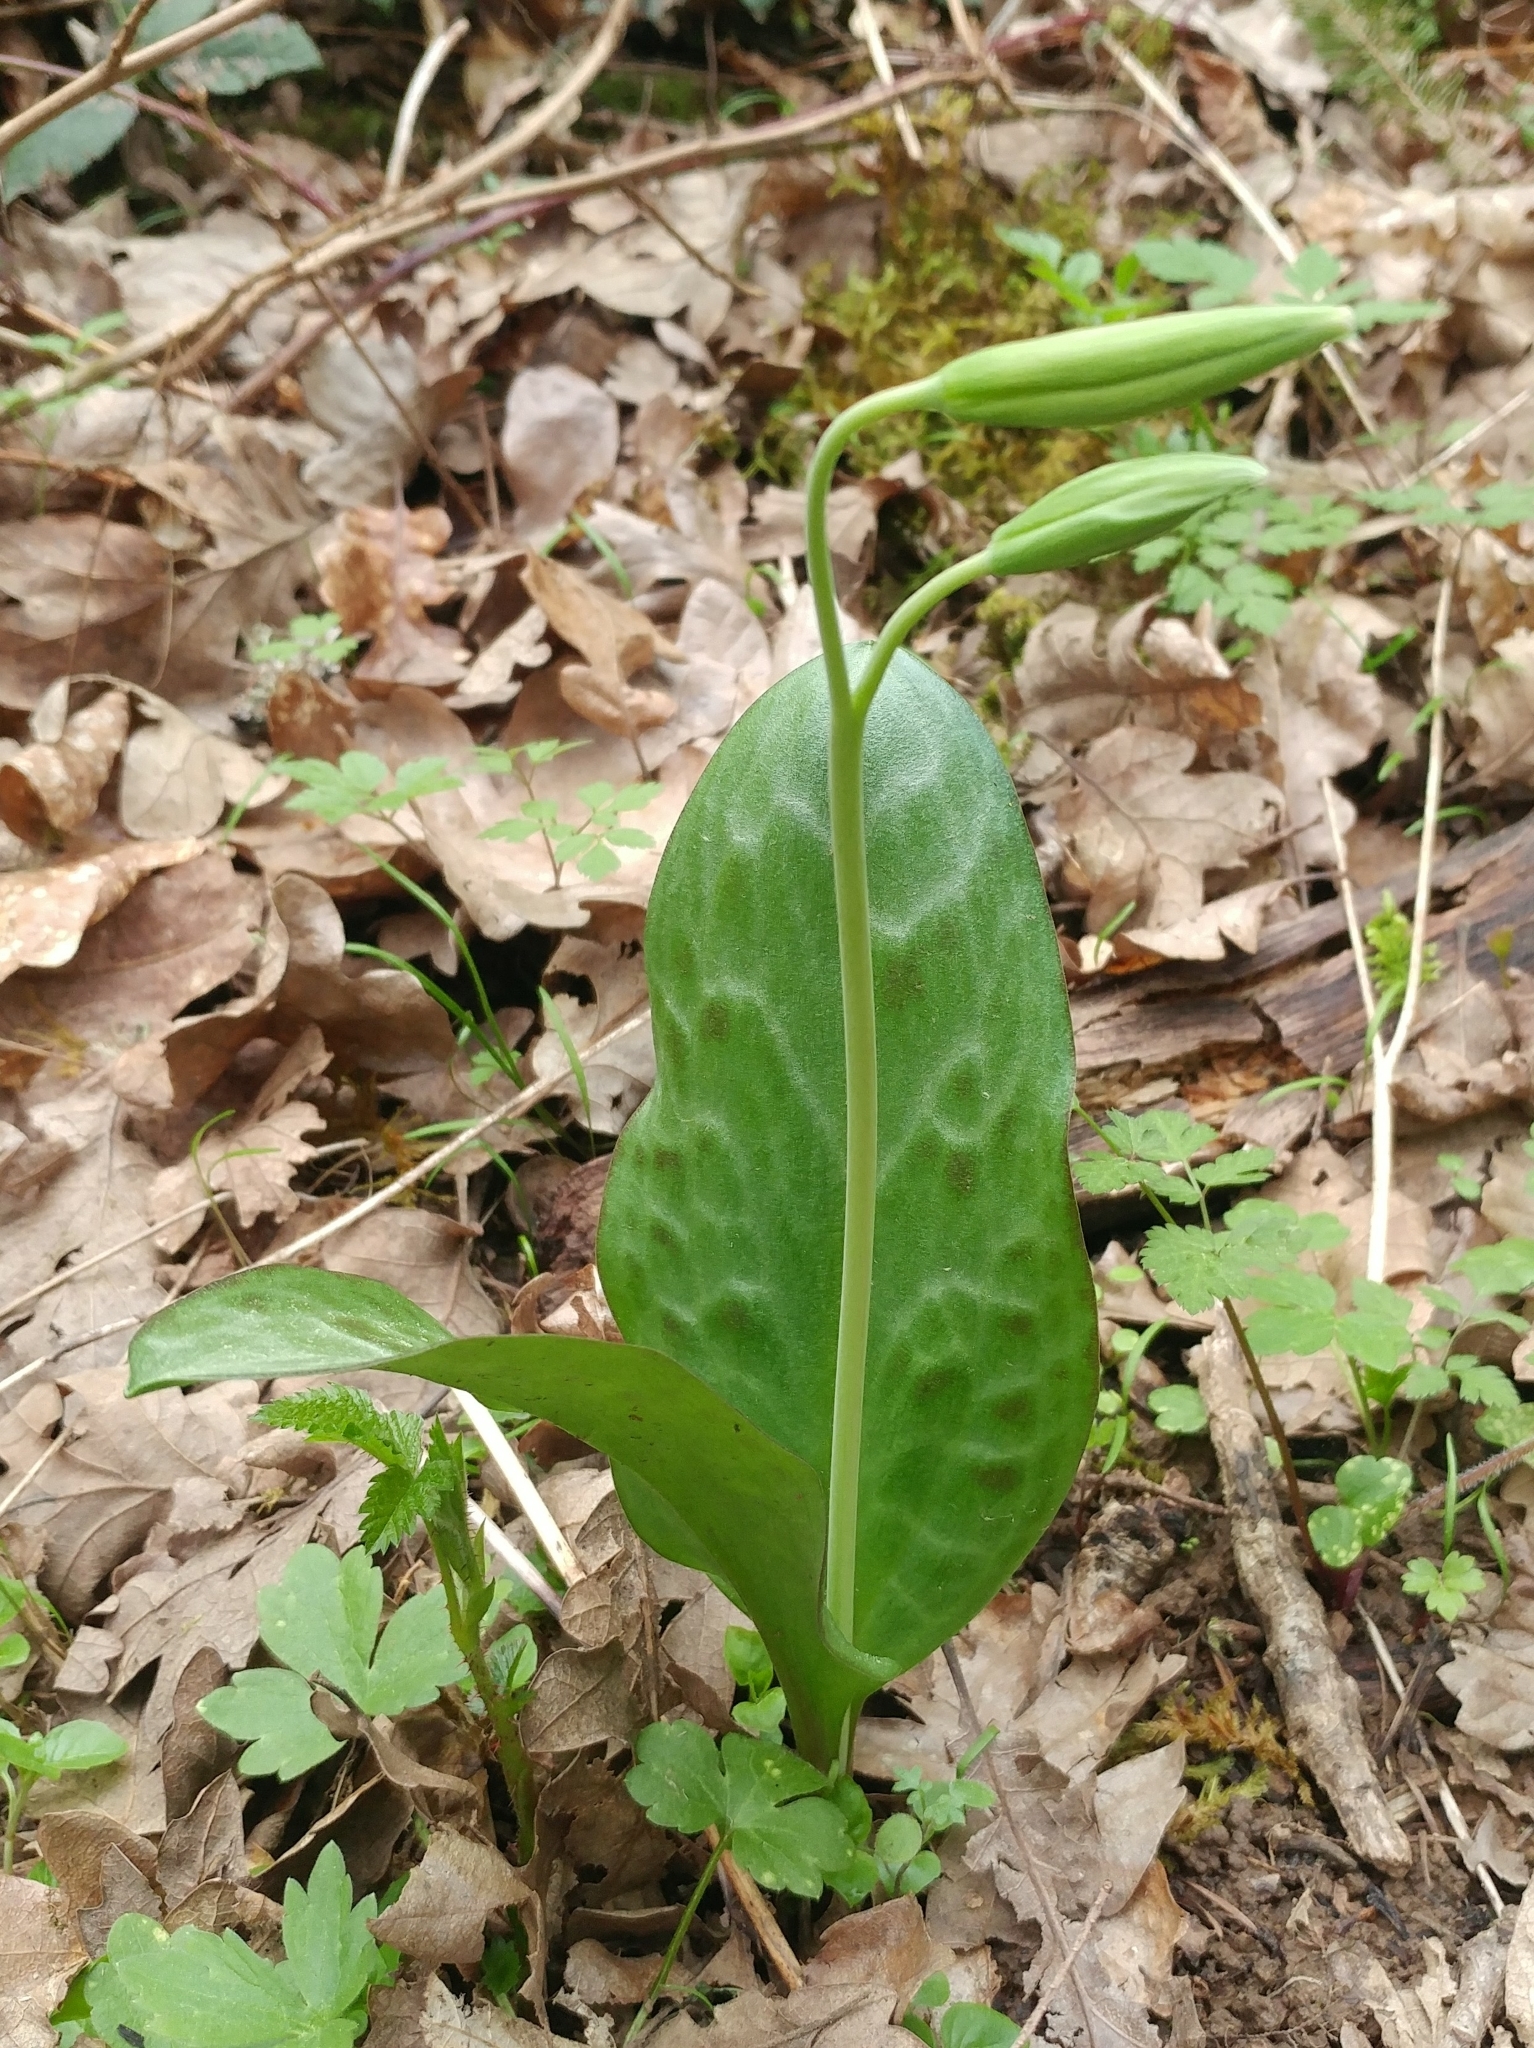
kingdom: Plantae
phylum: Tracheophyta
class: Liliopsida
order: Liliales
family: Liliaceae
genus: Erythronium
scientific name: Erythronium oregonum
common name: Giant adder's-tongue
